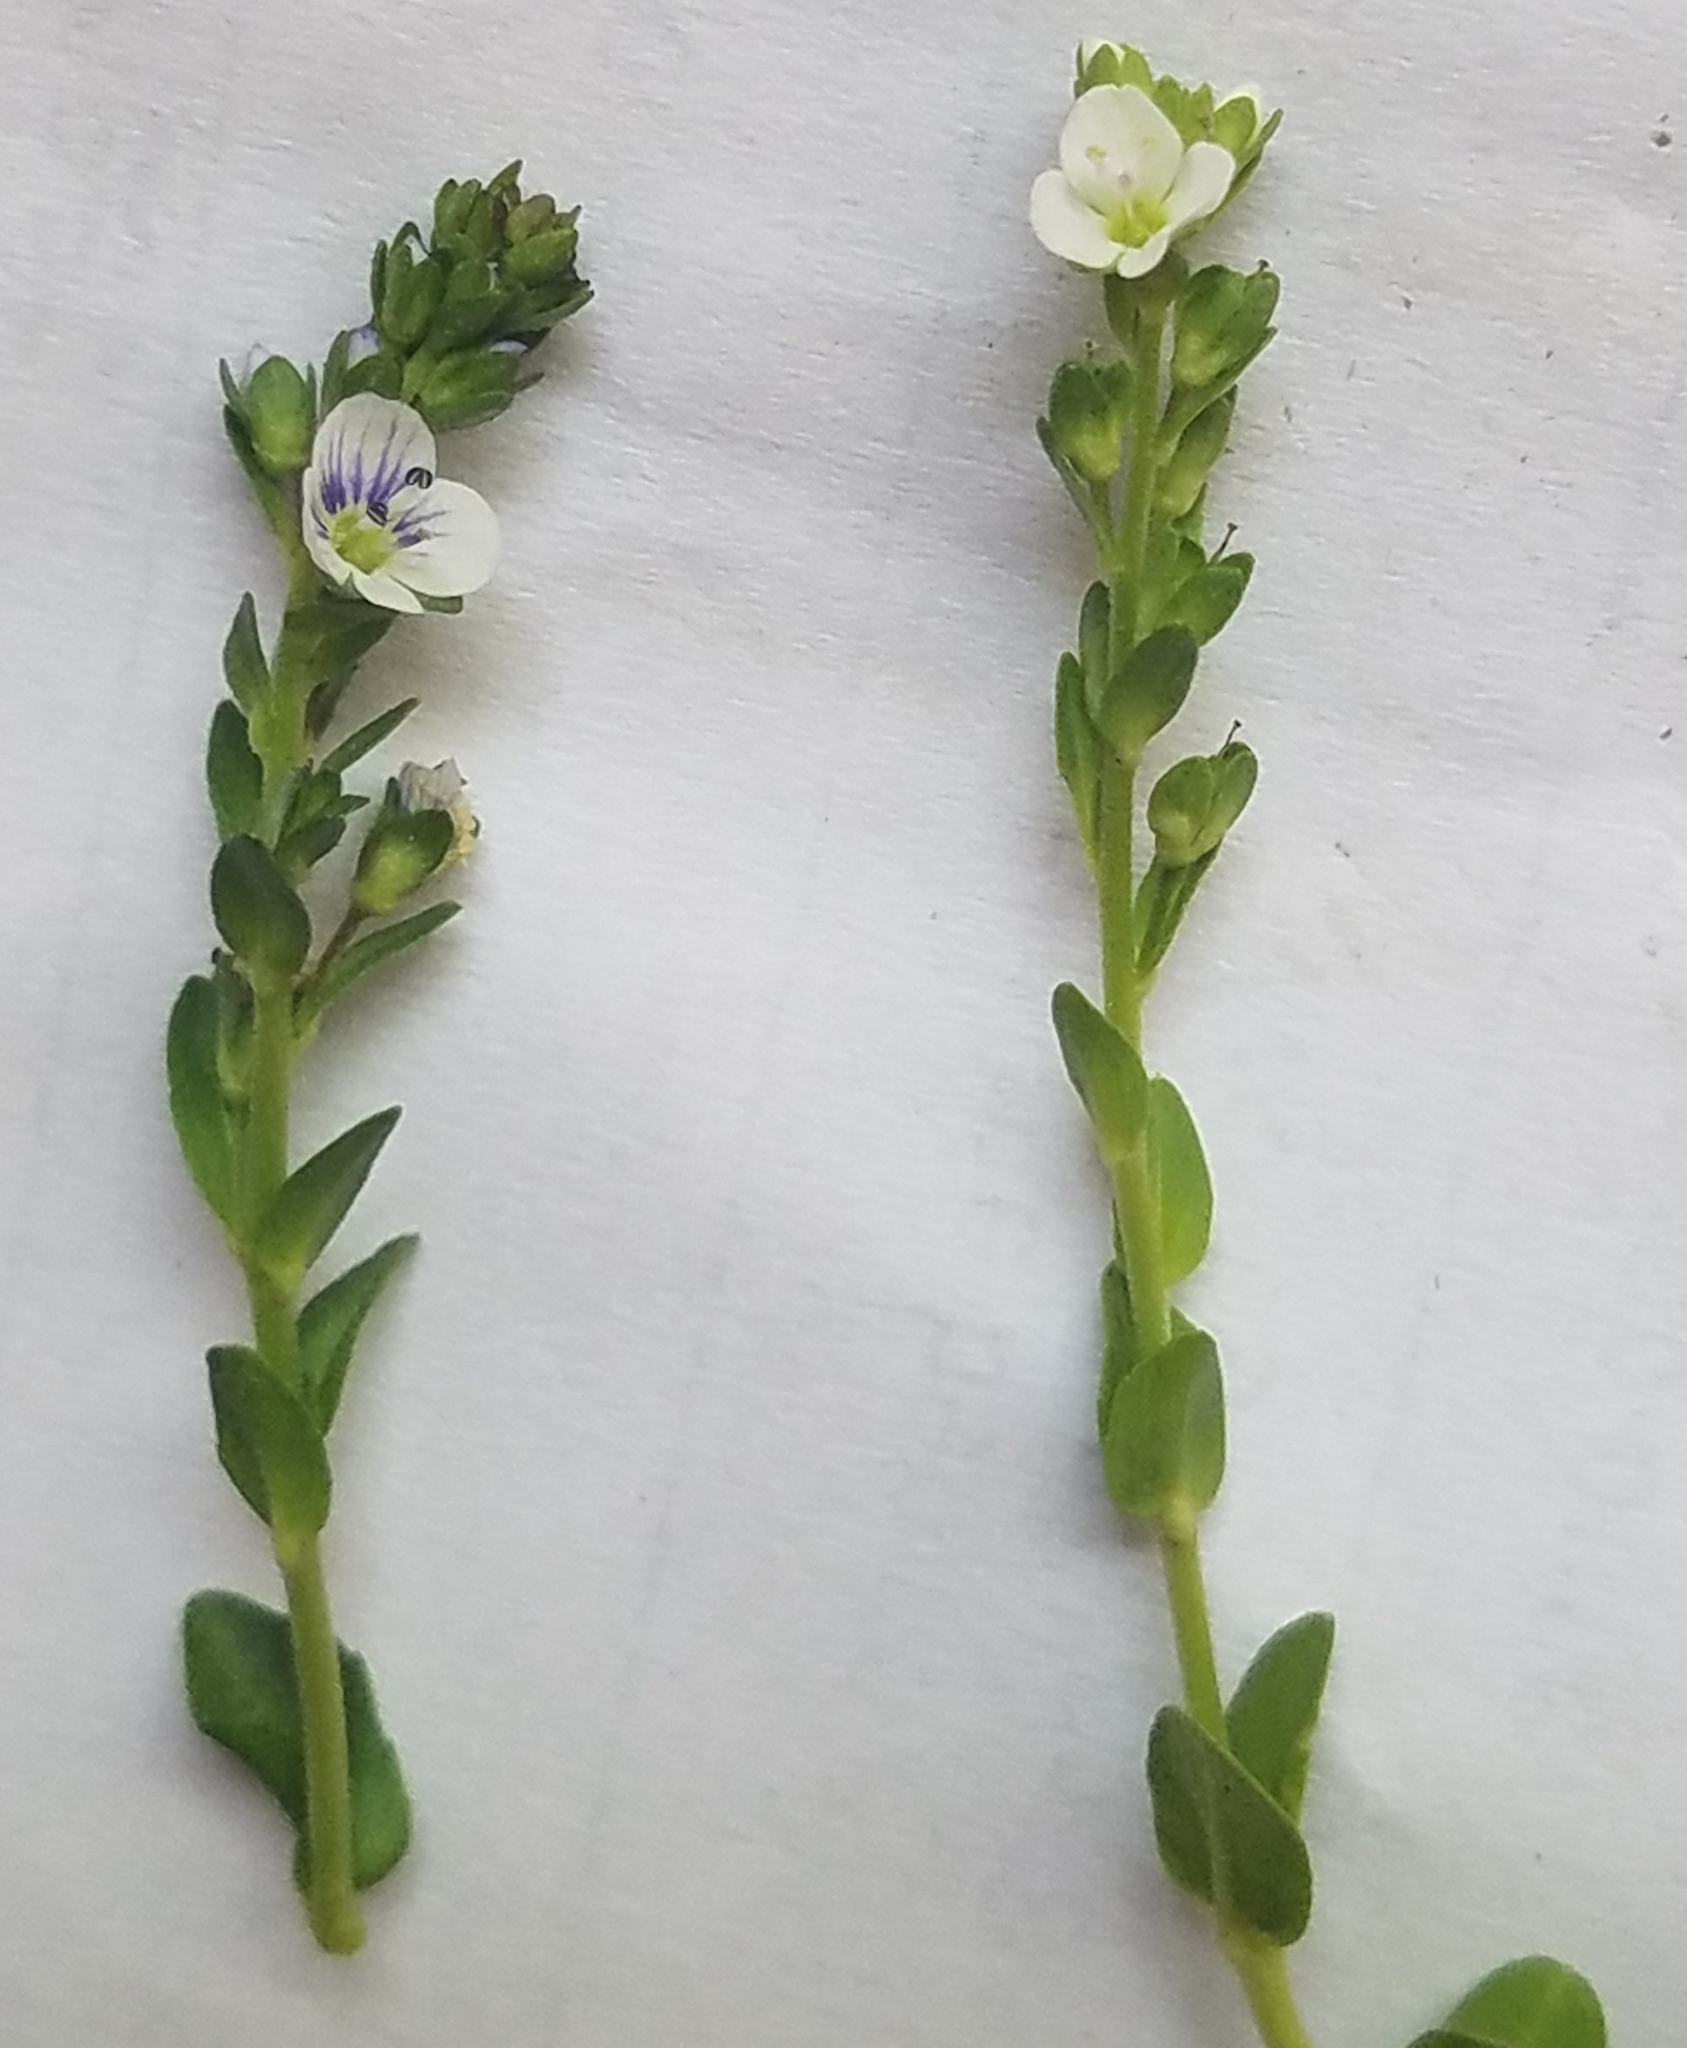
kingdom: Plantae
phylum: Tracheophyta
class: Magnoliopsida
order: Lamiales
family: Plantaginaceae
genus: Veronica
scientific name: Veronica serpyllifolia
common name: Thyme-leaved speedwell
